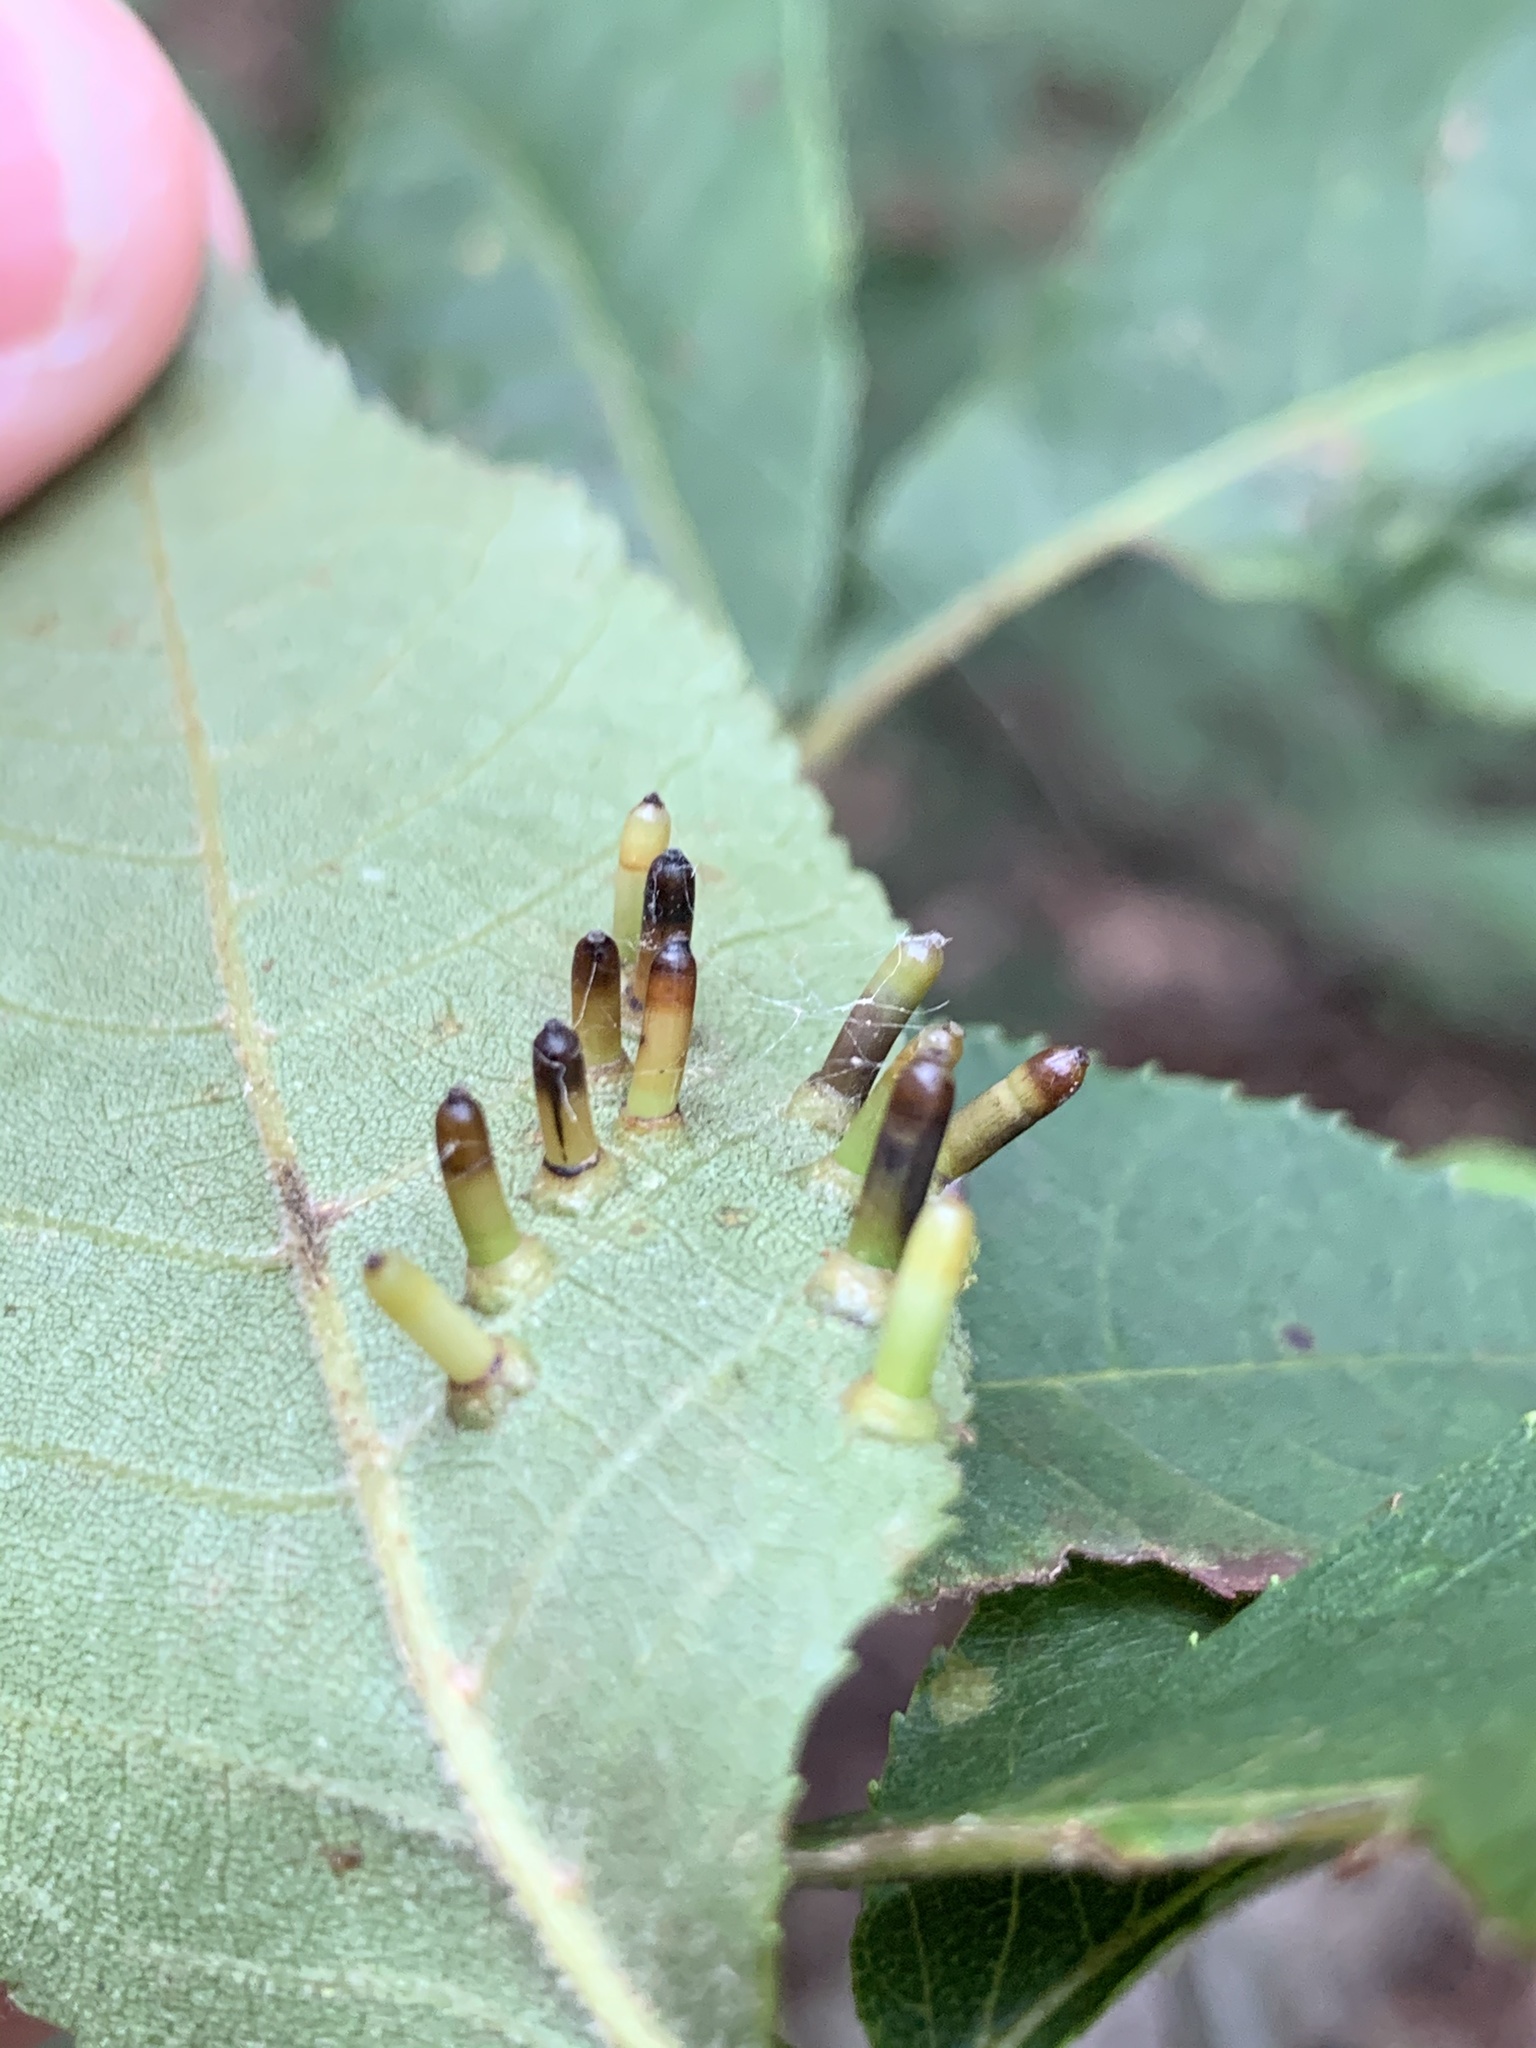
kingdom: Animalia
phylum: Arthropoda
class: Insecta
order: Diptera
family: Cecidomyiidae
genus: Caryomyia
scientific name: Caryomyia tubicola
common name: Hickory bullet gall midge
